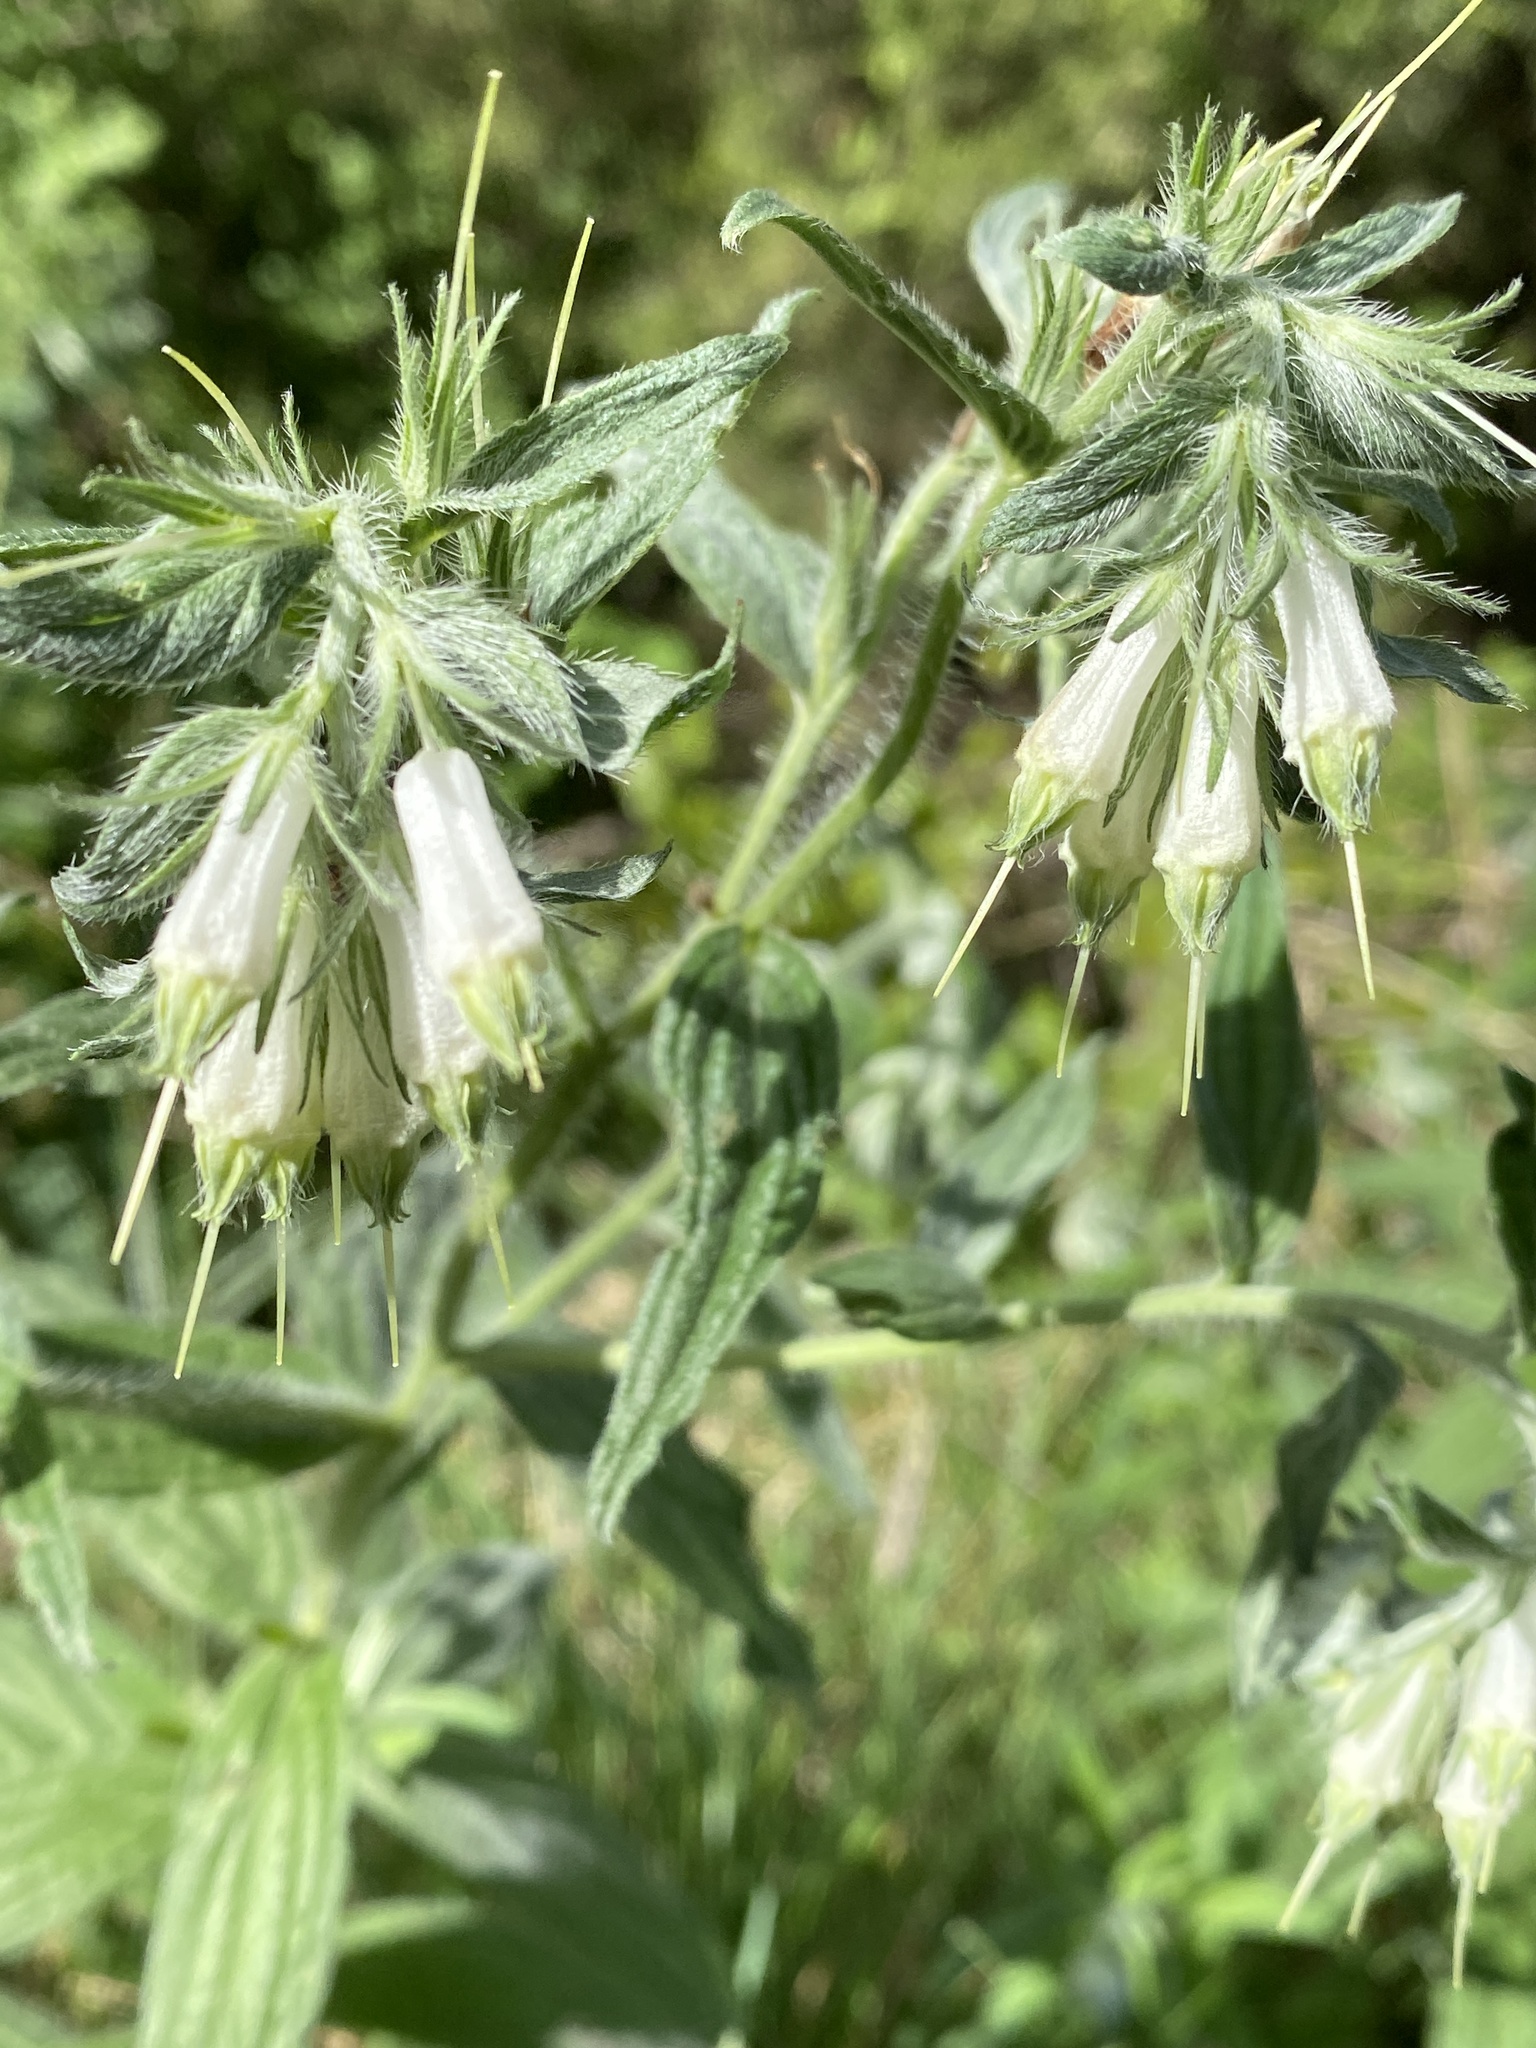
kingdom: Plantae
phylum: Tracheophyta
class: Magnoliopsida
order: Boraginales
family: Boraginaceae
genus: Lithospermum
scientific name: Lithospermum caroliniense
